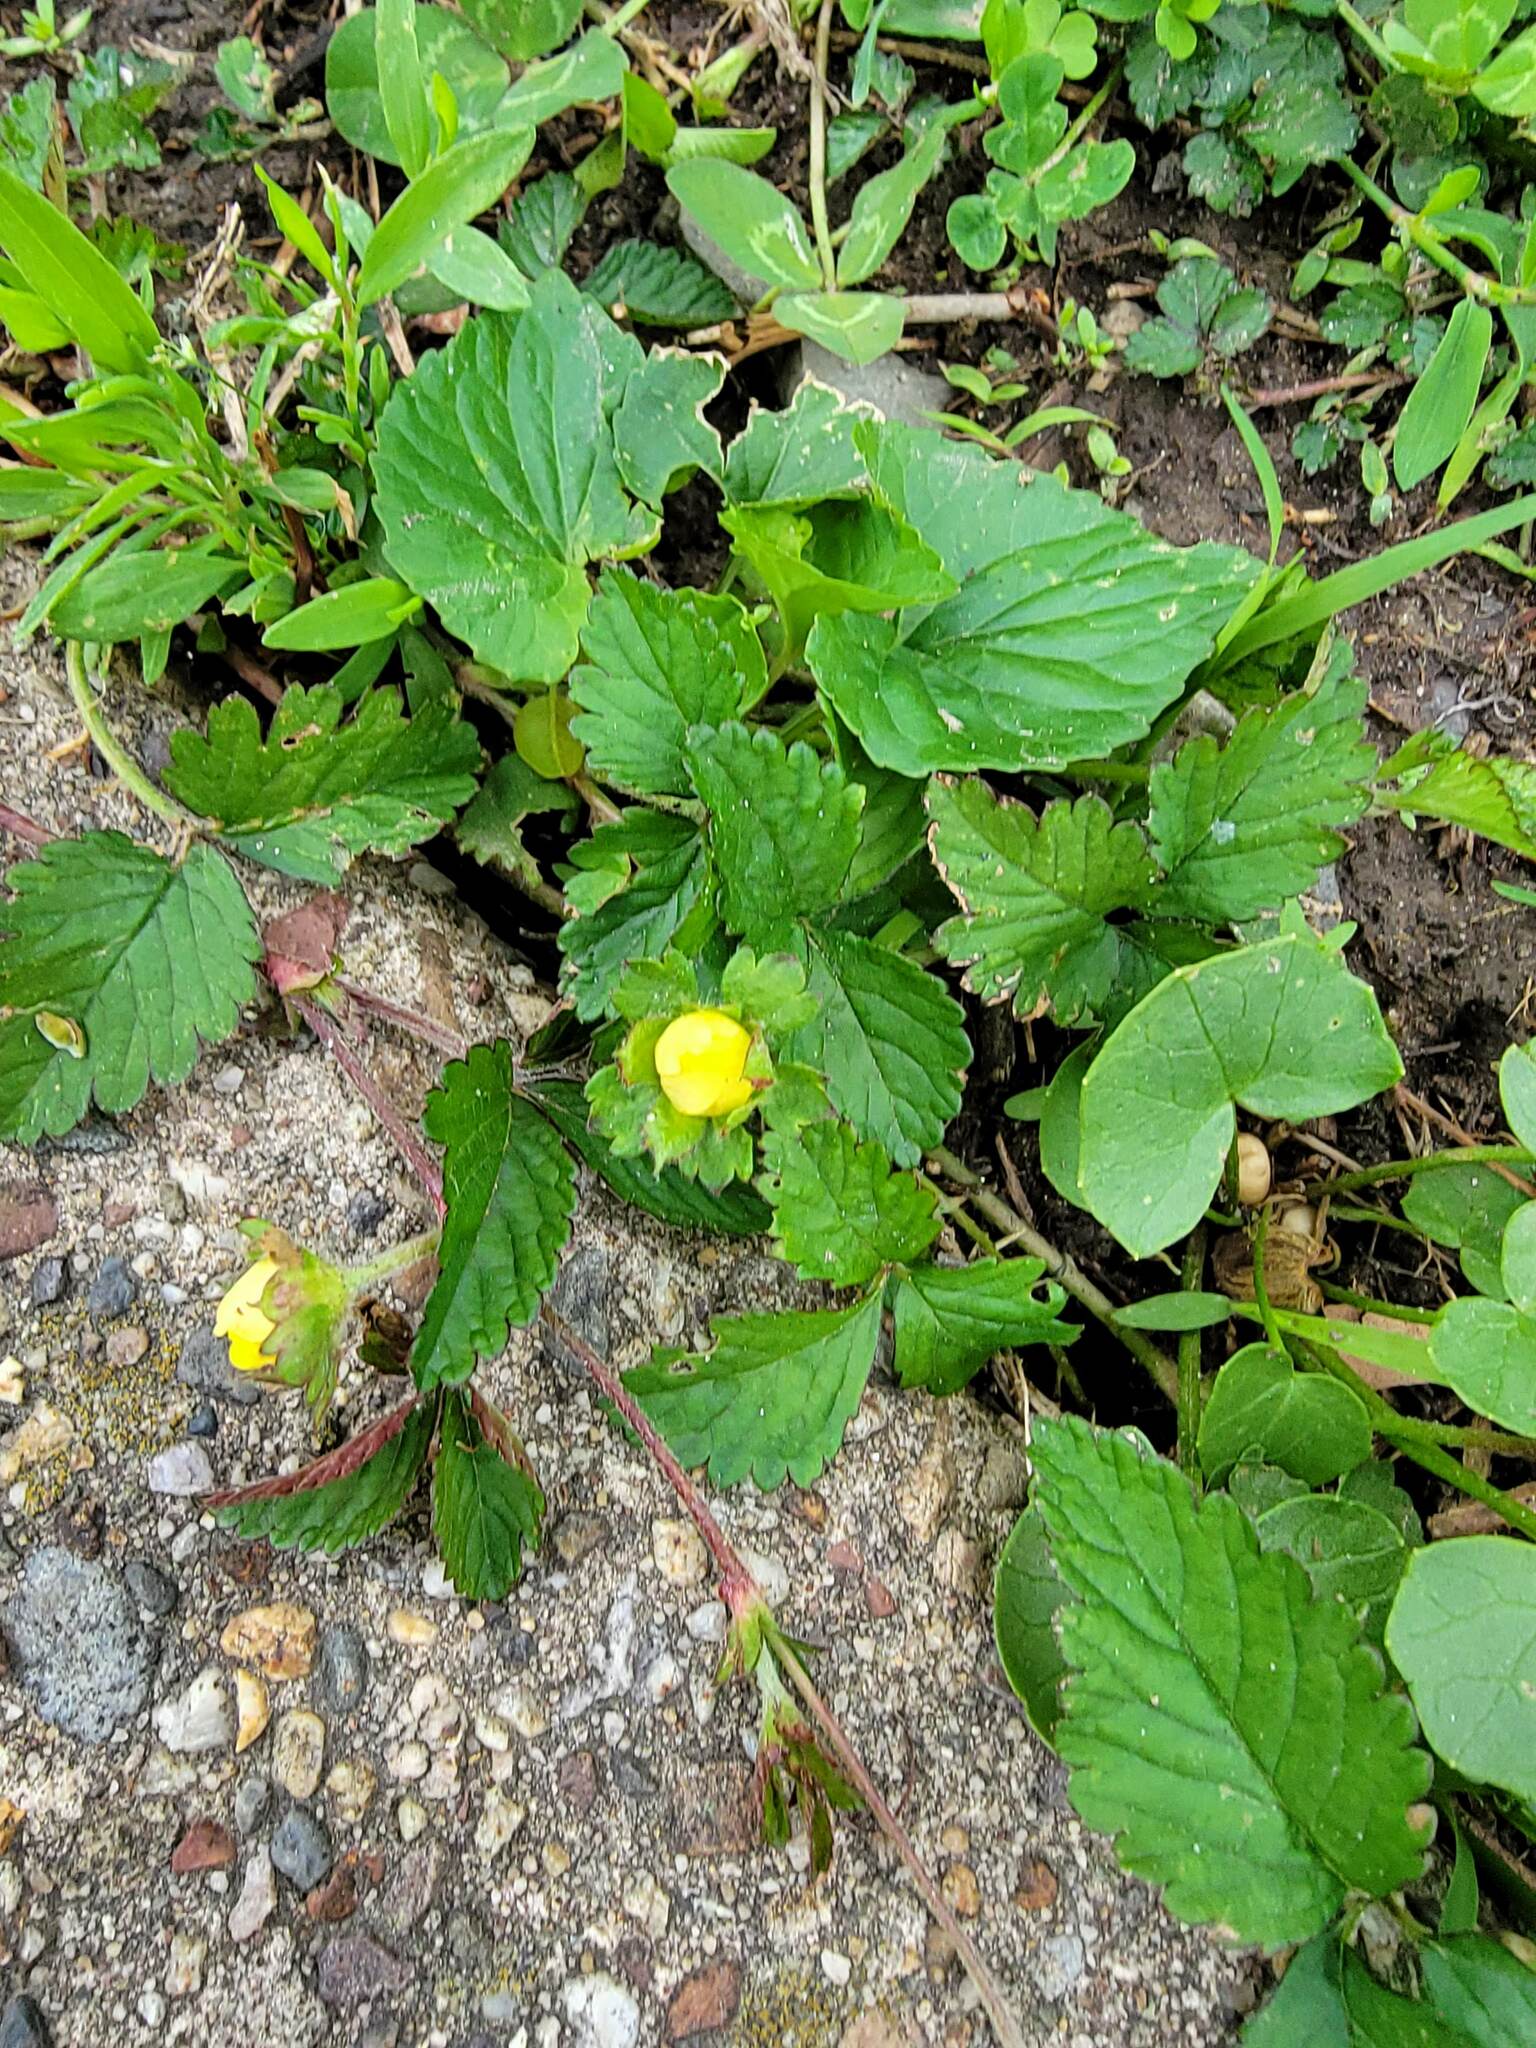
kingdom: Plantae
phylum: Tracheophyta
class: Magnoliopsida
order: Rosales
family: Rosaceae
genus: Potentilla
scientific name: Potentilla indica
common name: Yellow-flowered strawberry
